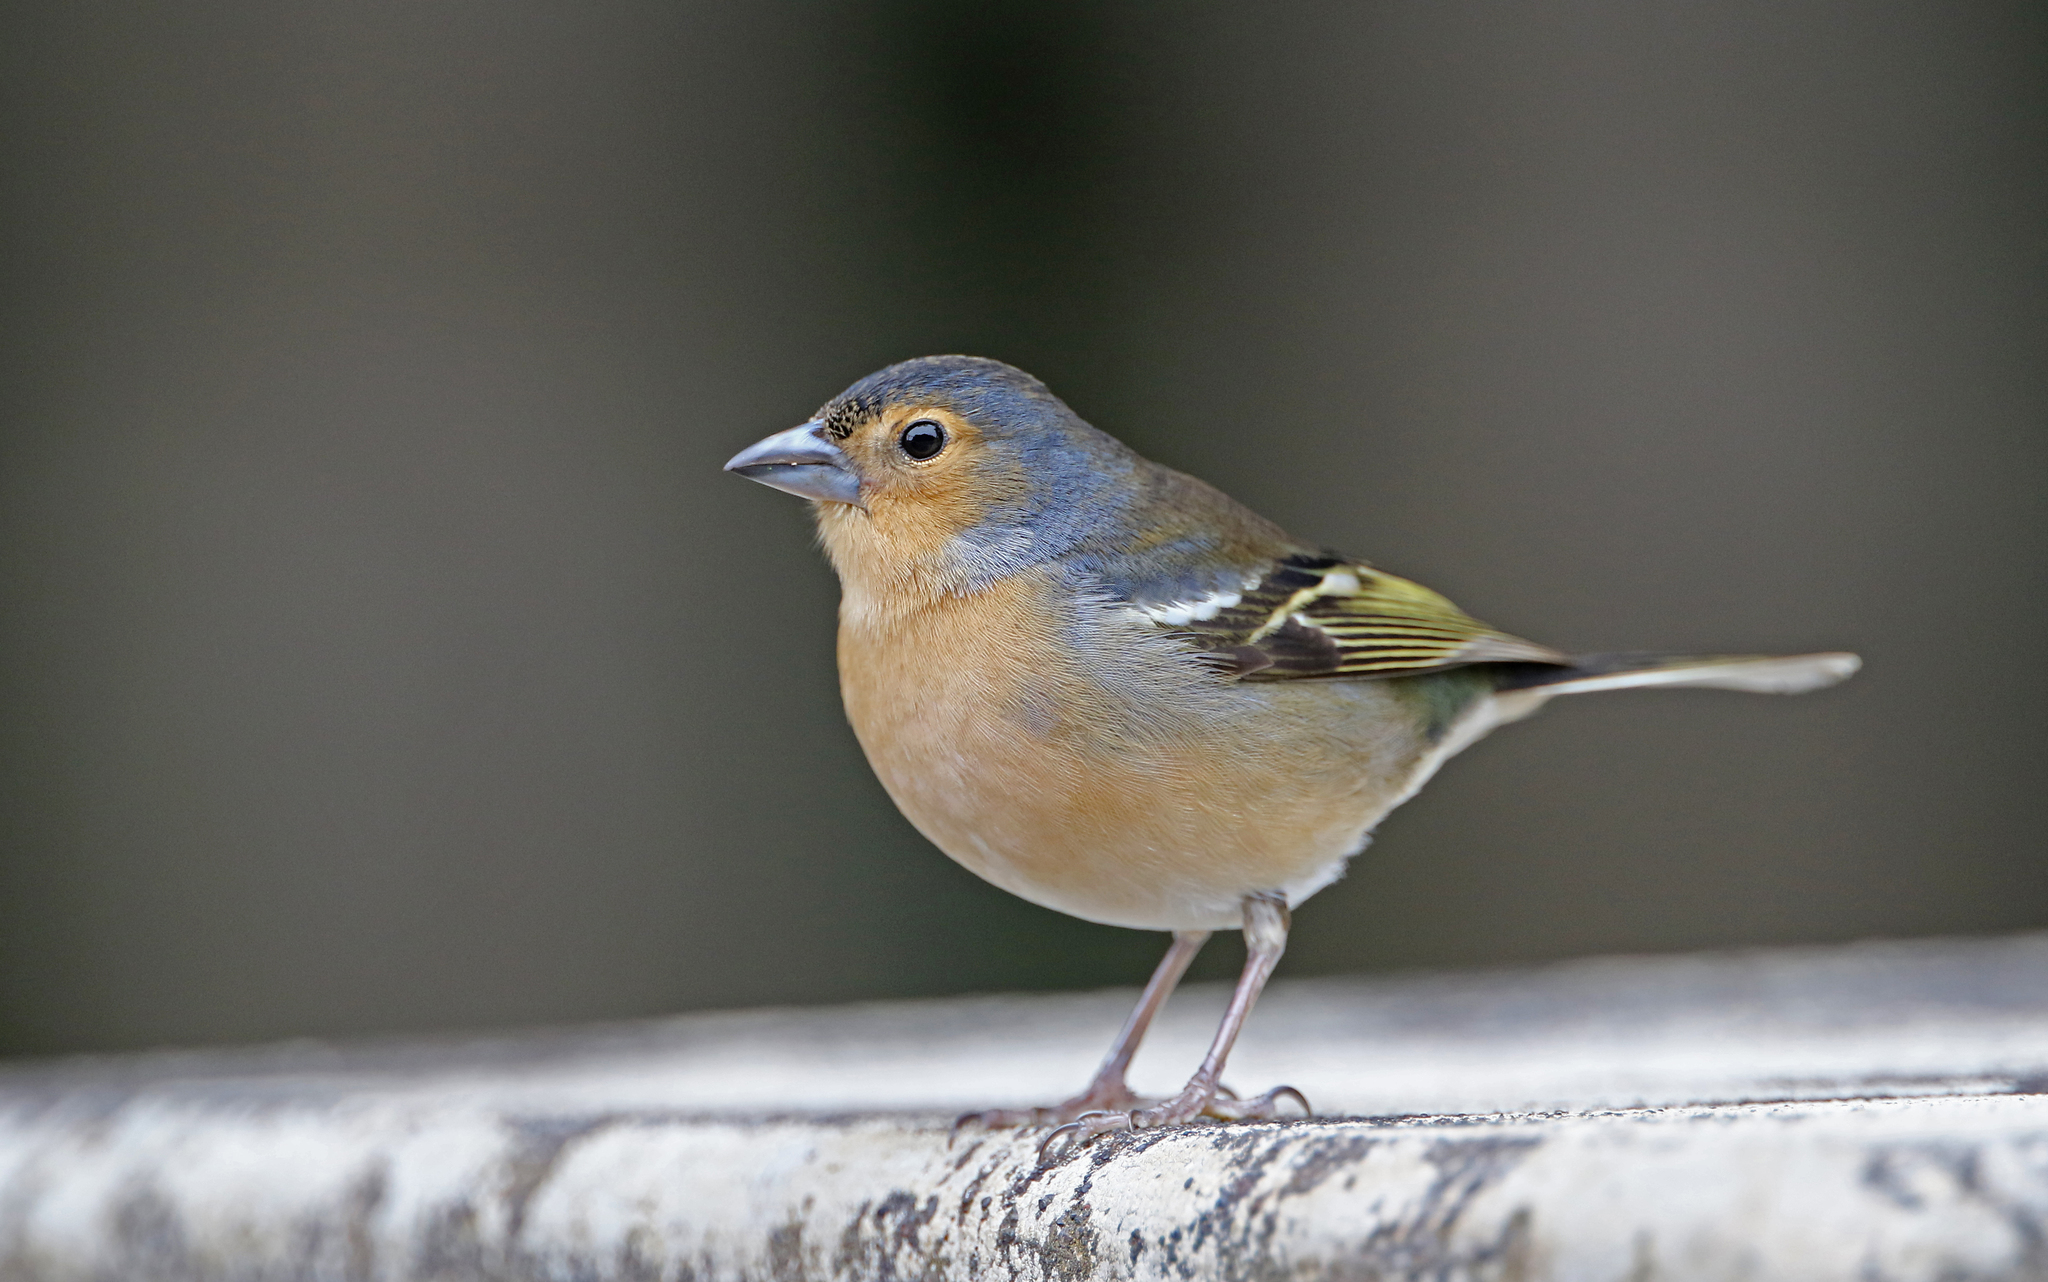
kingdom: Animalia
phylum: Chordata
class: Aves
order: Passeriformes
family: Fringillidae
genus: Fringilla
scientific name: Fringilla canariensis
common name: Canary islands chaffinch
